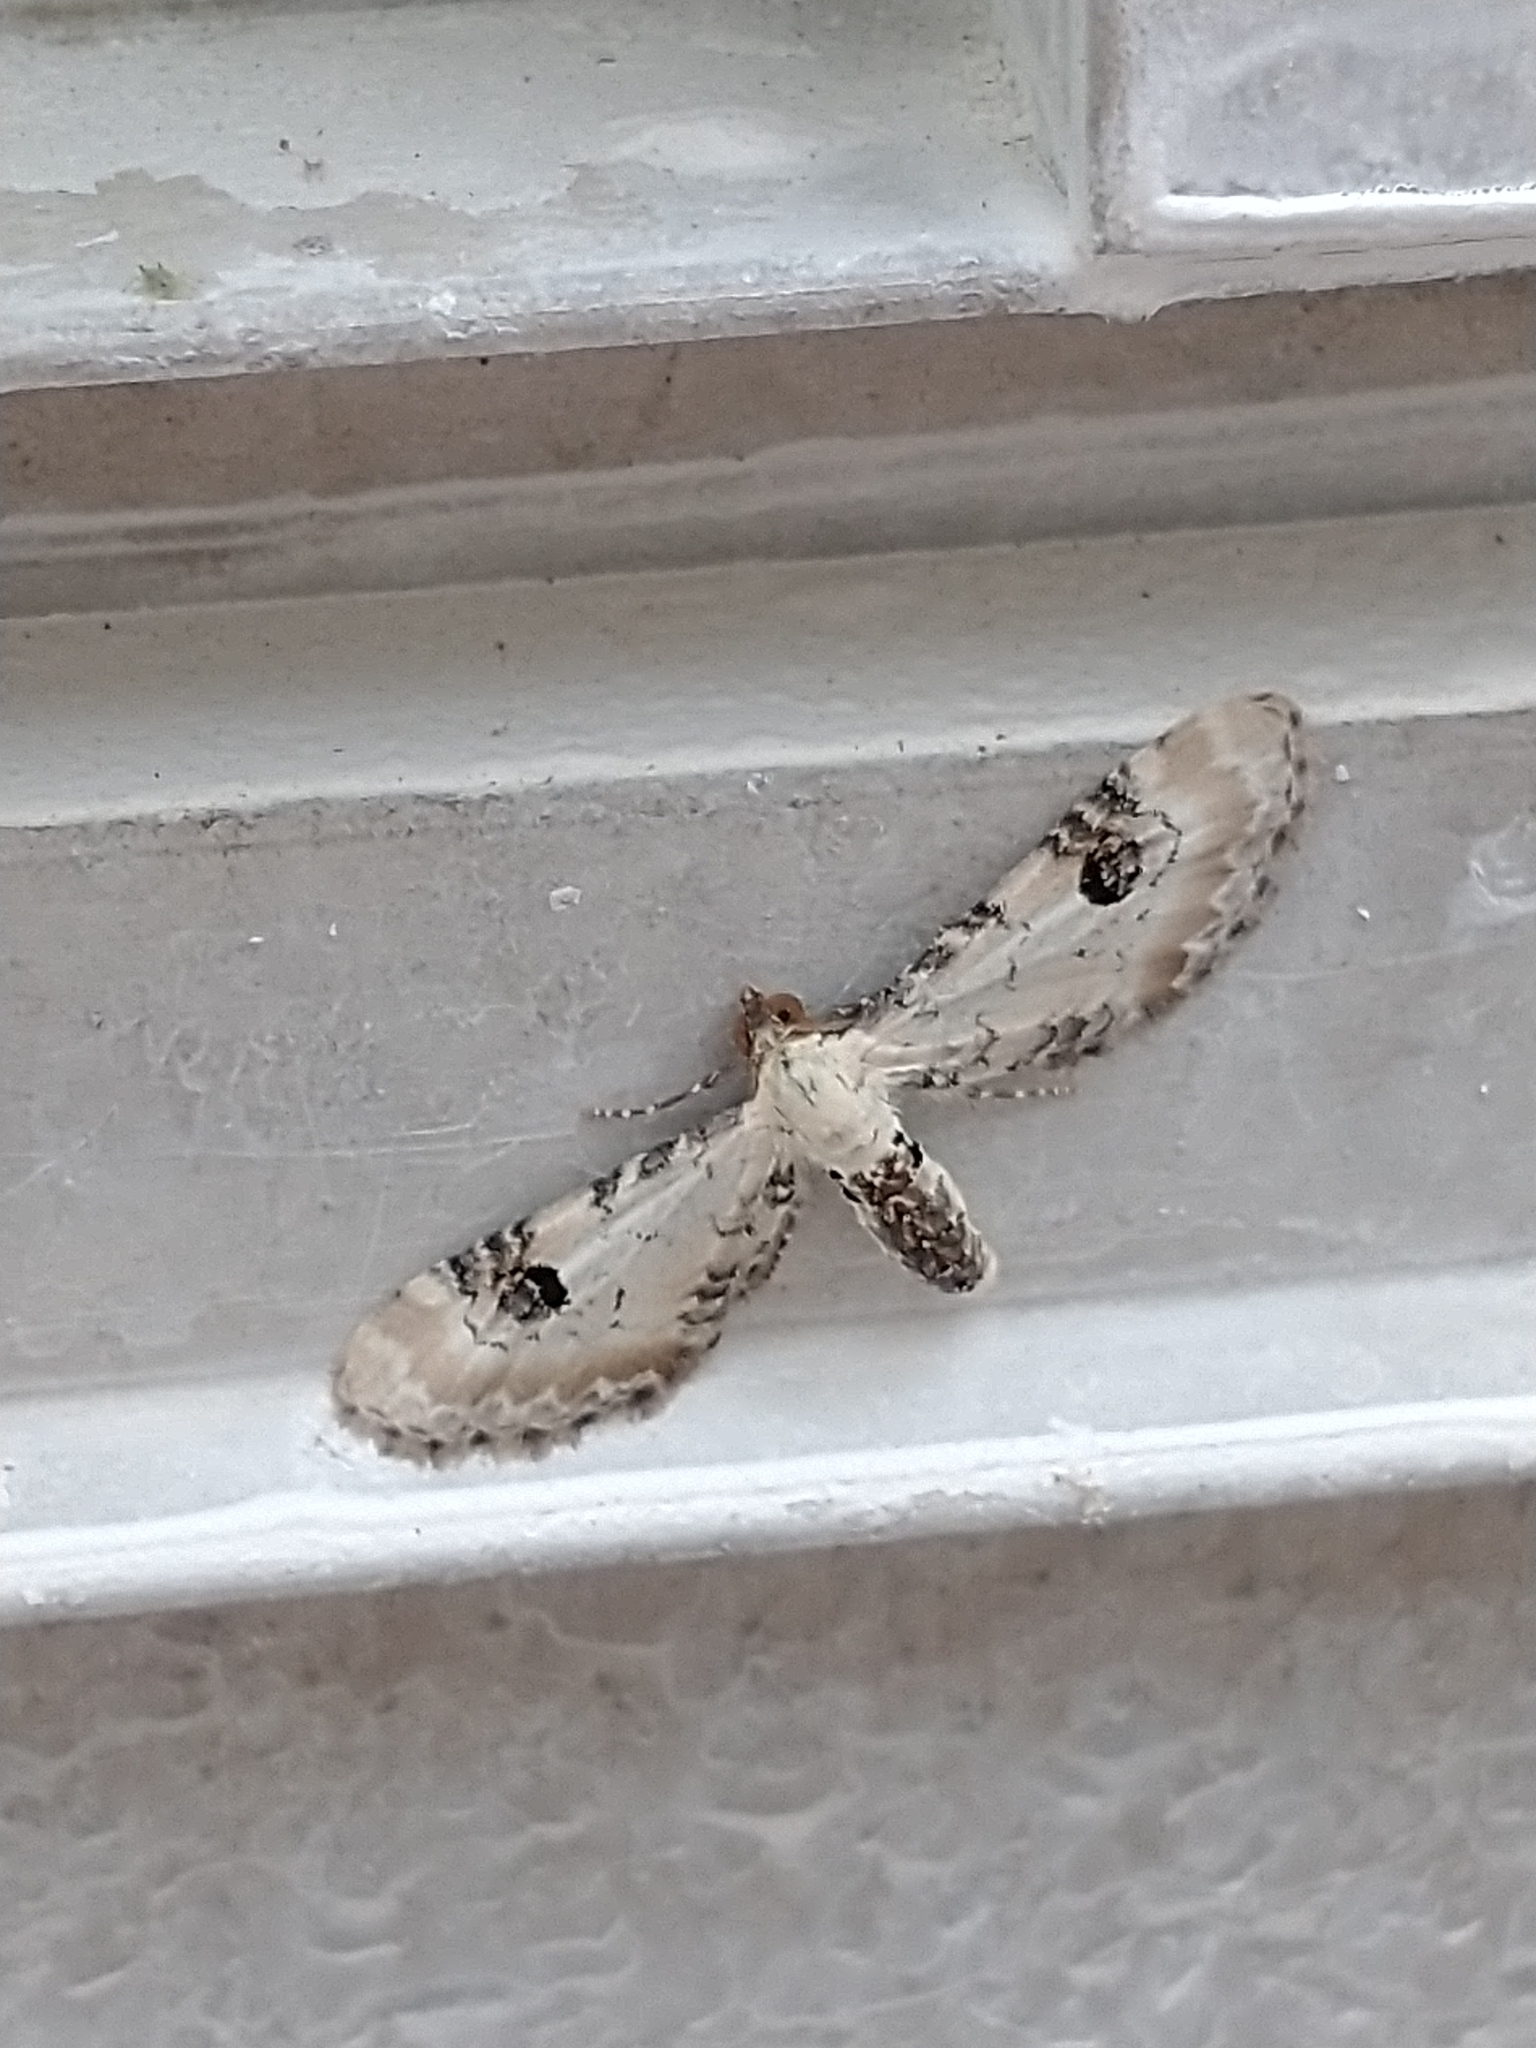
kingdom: Animalia
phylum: Arthropoda
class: Insecta
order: Lepidoptera
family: Geometridae
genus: Eupithecia
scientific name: Eupithecia centaureata
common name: Lime-speck pug
